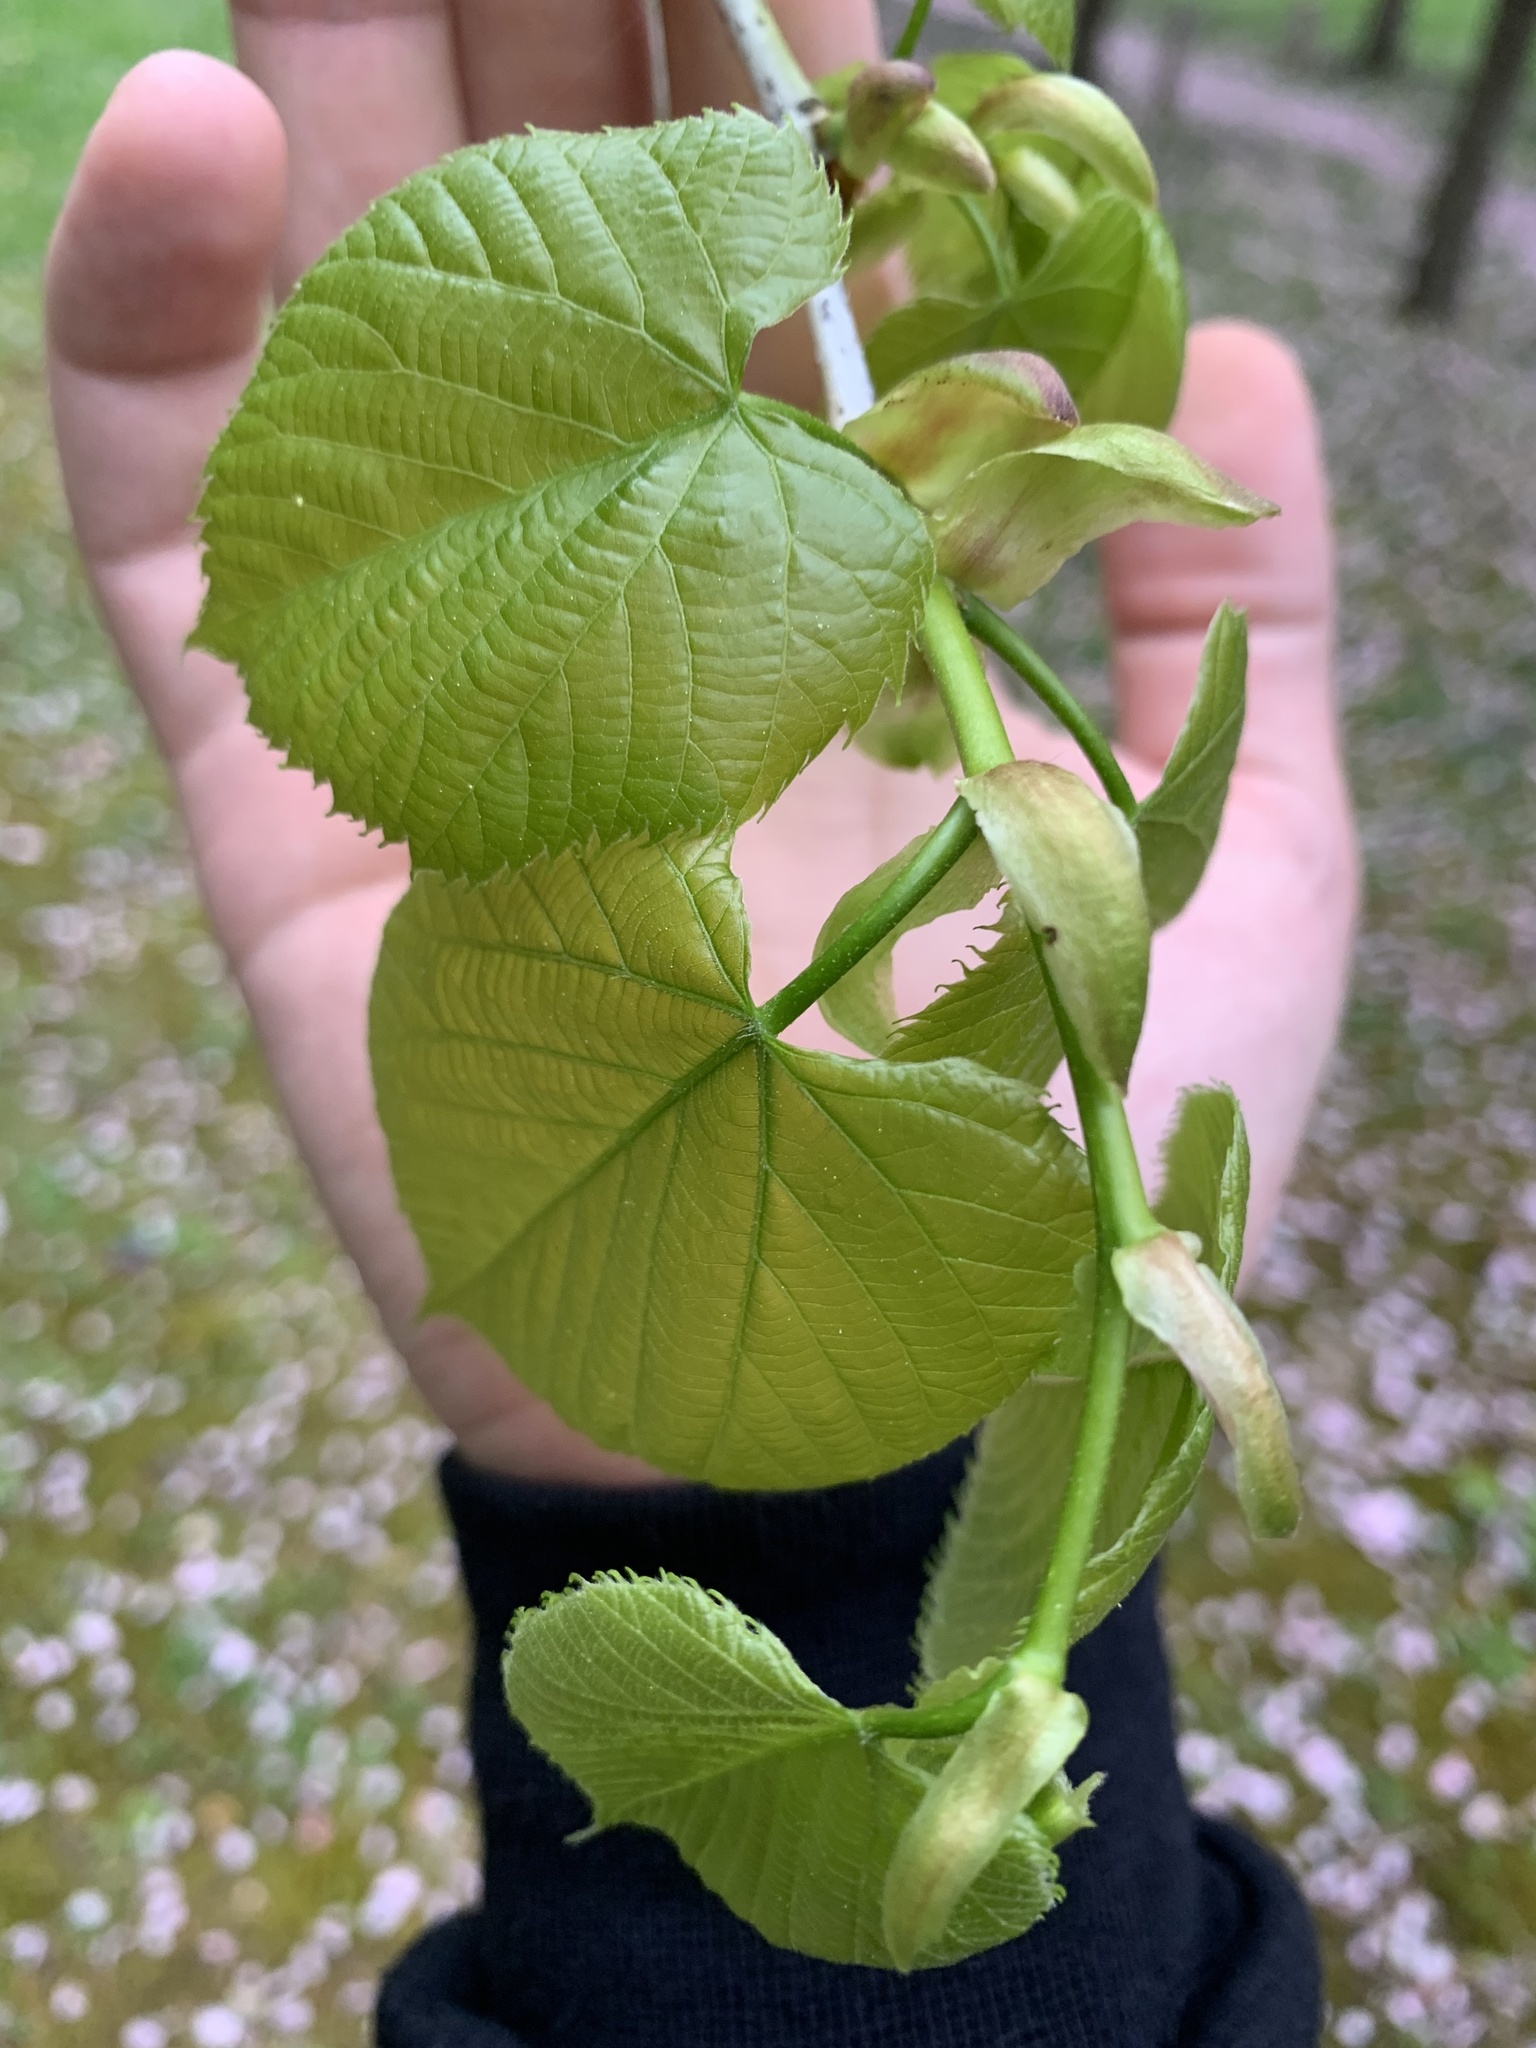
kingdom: Plantae
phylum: Tracheophyta
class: Magnoliopsida
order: Malvales
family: Malvaceae
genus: Tilia
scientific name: Tilia americana
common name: Basswood
